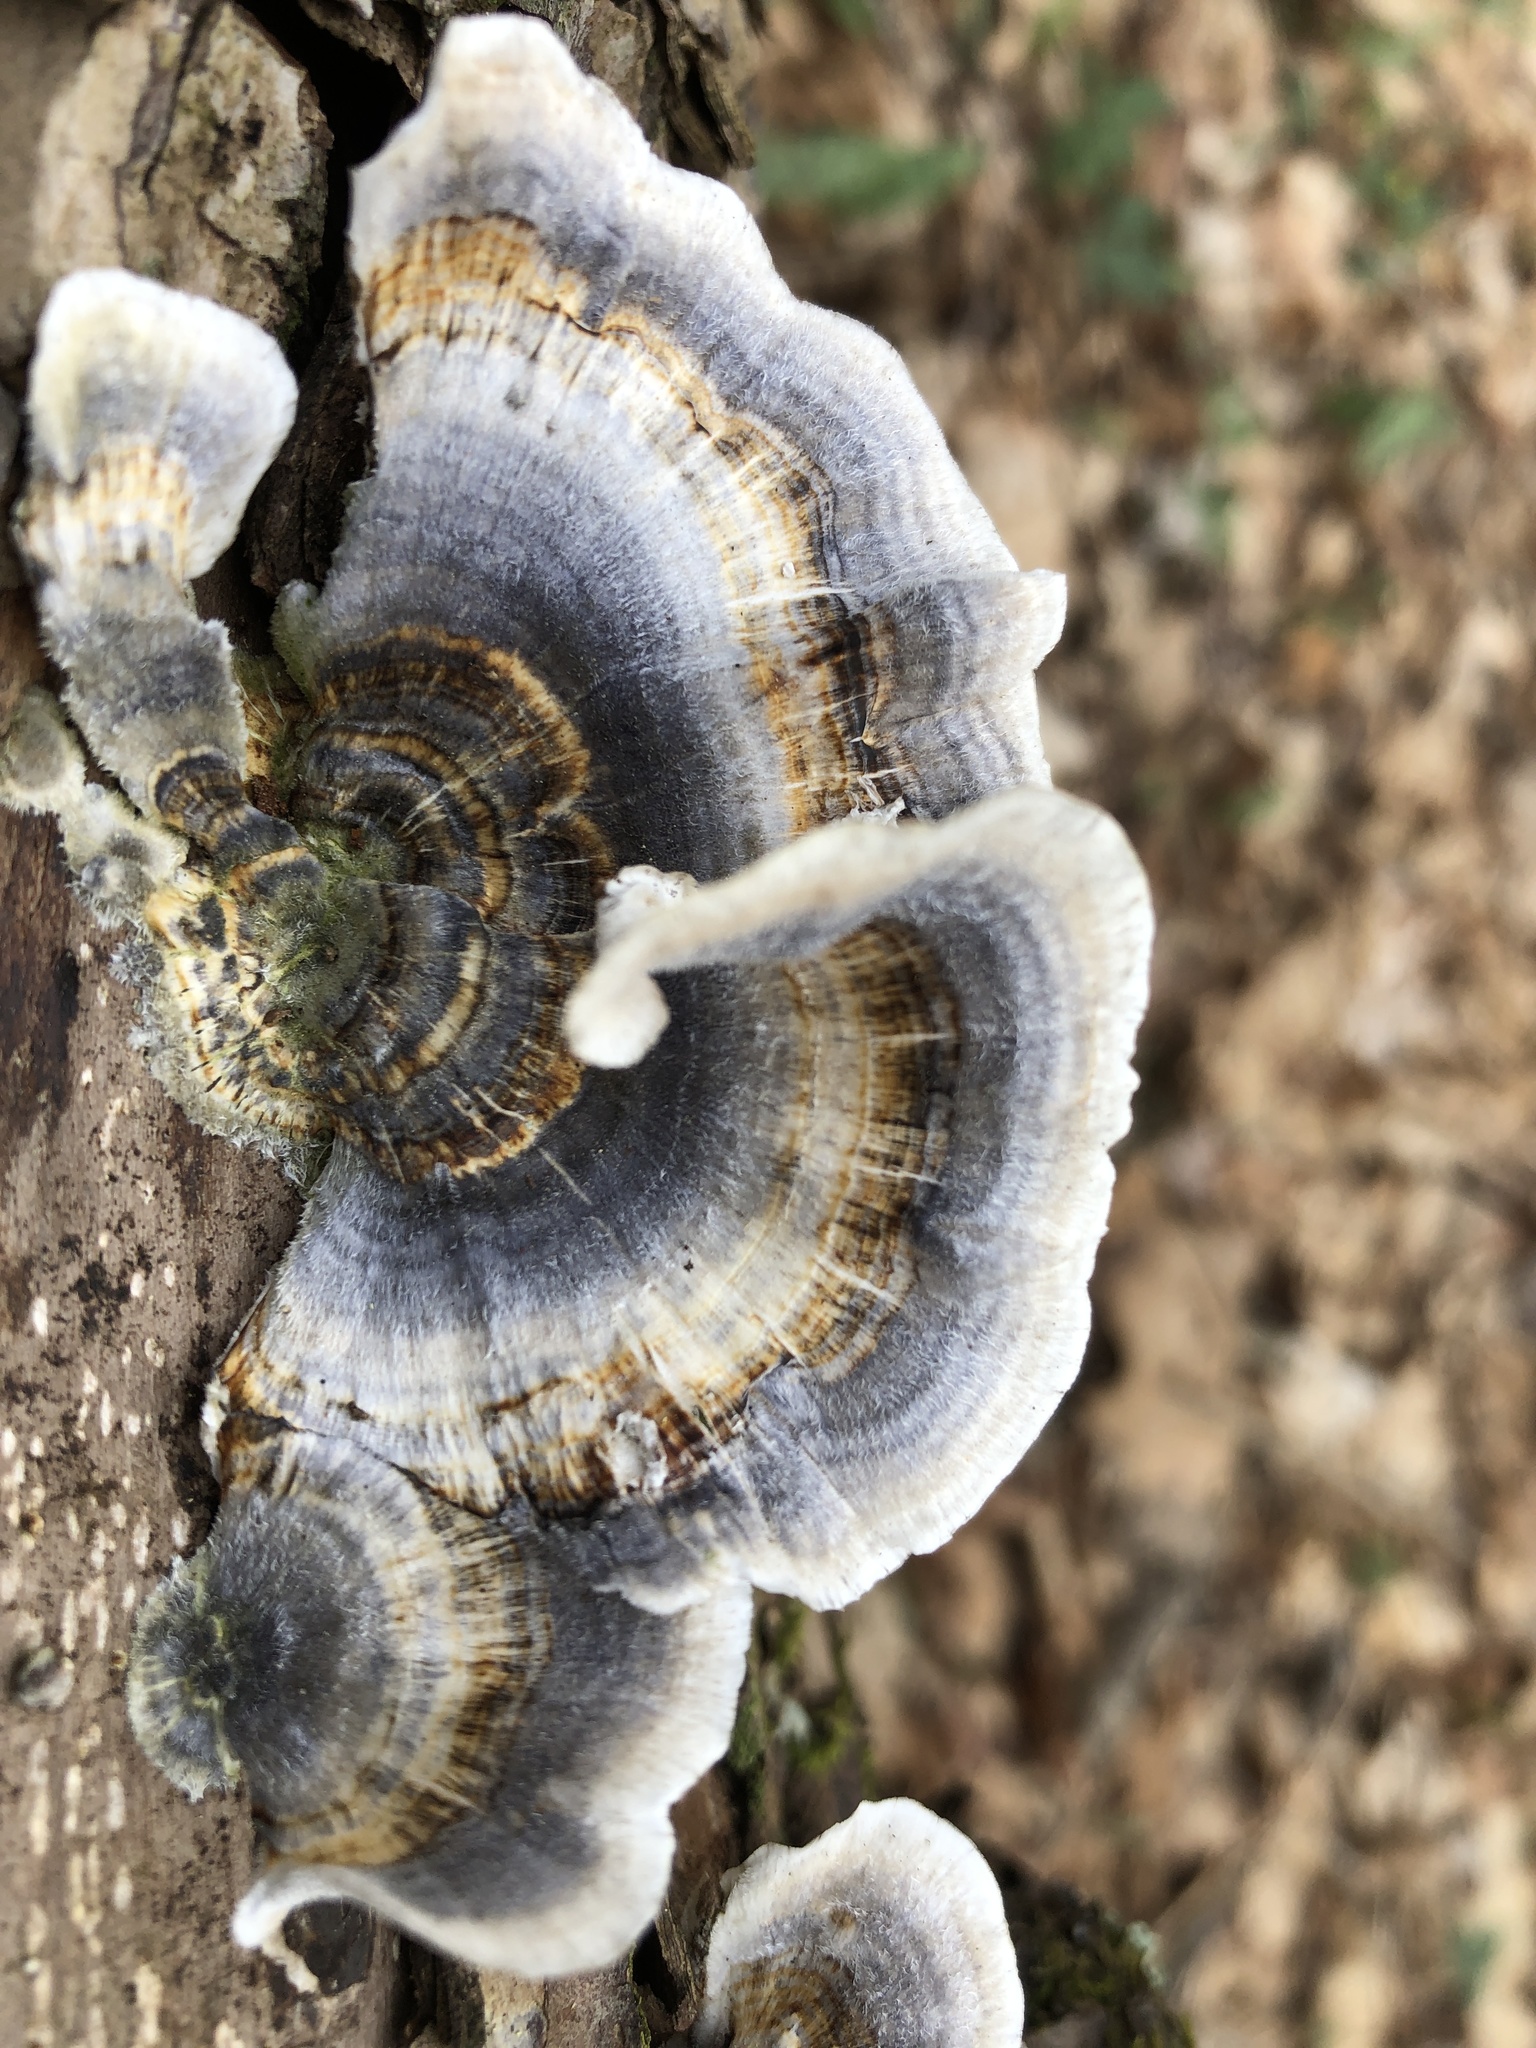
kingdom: Fungi
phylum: Basidiomycota
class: Agaricomycetes
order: Polyporales
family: Polyporaceae
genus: Trametes
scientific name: Trametes versicolor
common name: Turkeytail
